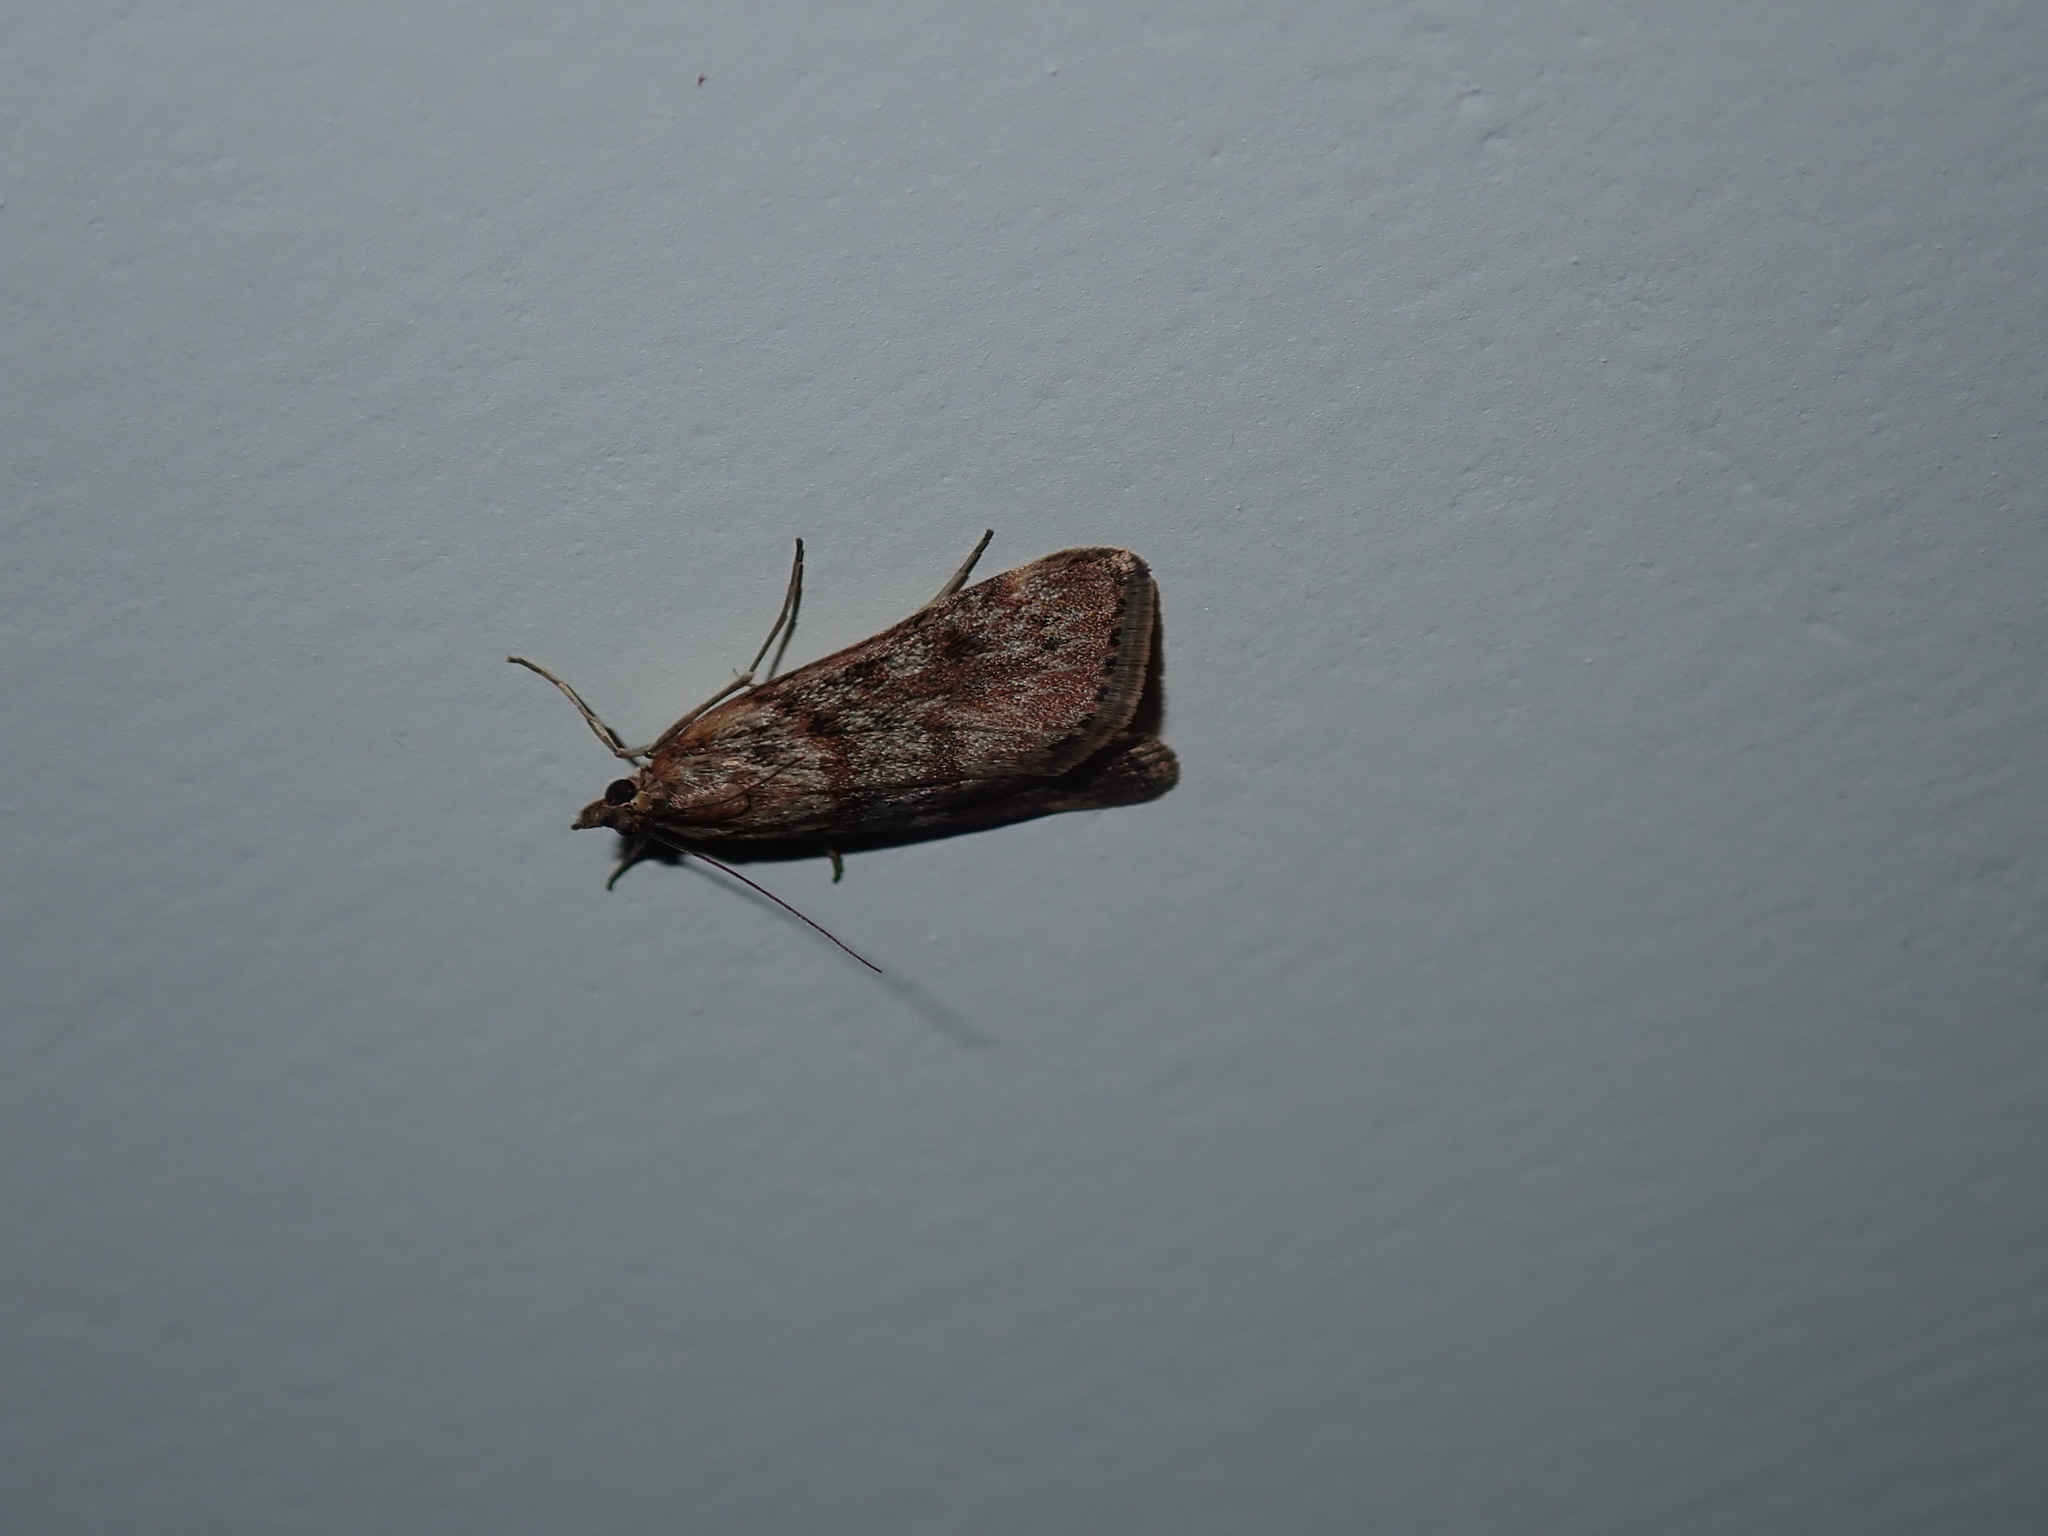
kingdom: Animalia
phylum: Arthropoda
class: Insecta
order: Lepidoptera
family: Crambidae
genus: Achyra
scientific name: Achyra affinitalis
